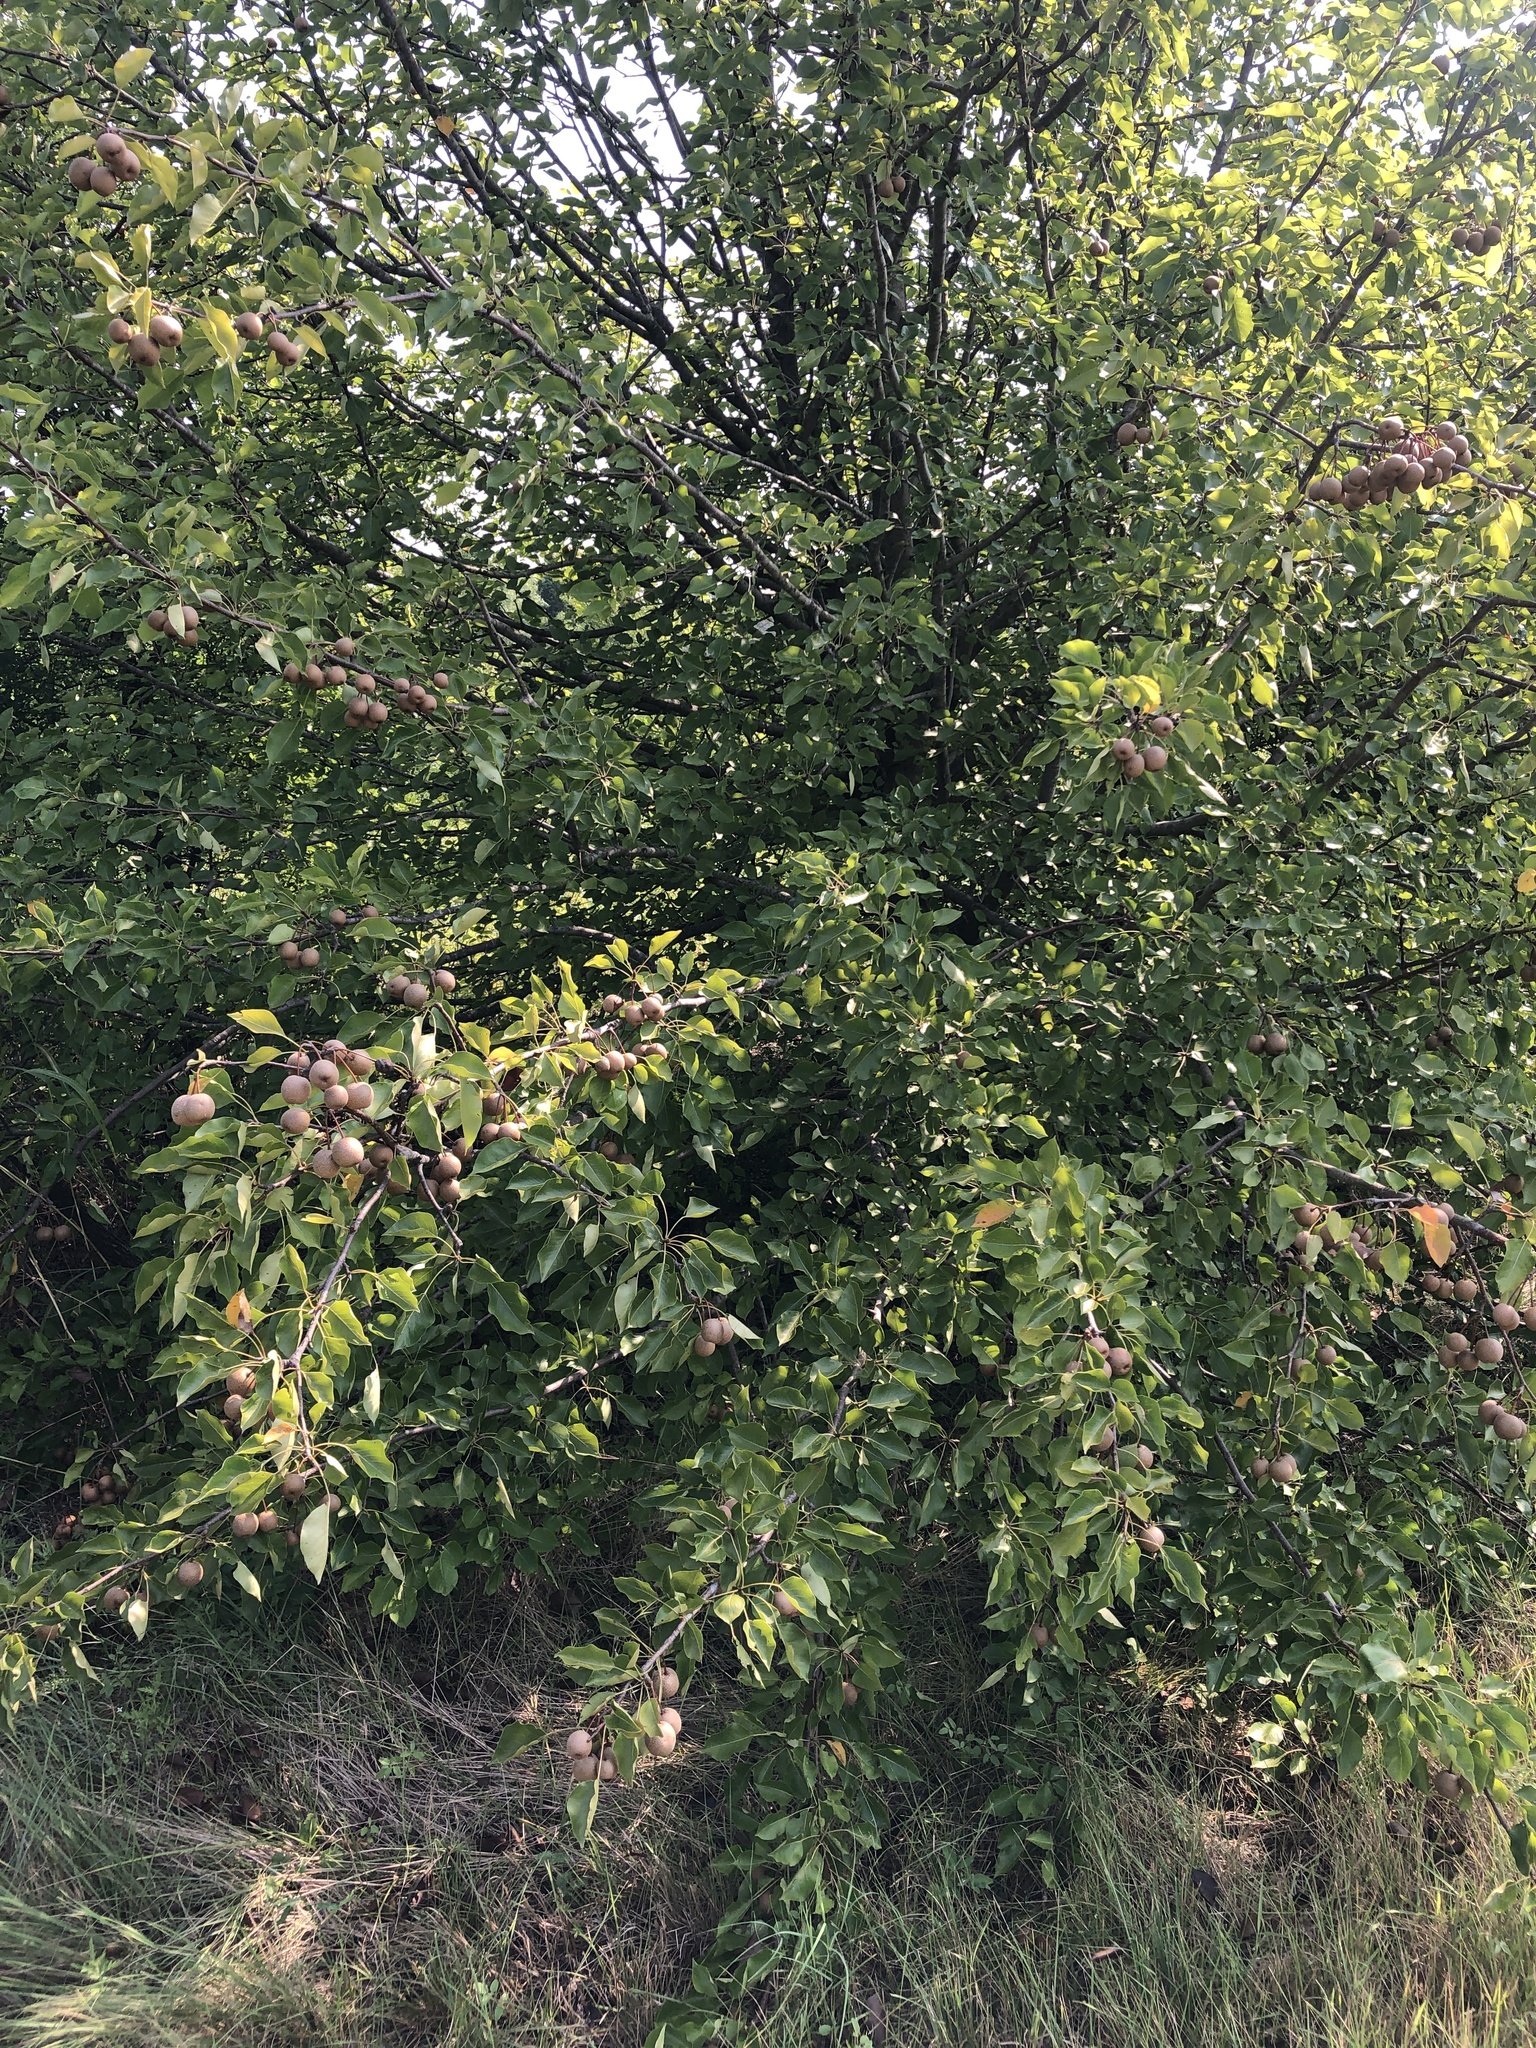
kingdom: Plantae
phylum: Tracheophyta
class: Magnoliopsida
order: Rosales
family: Rosaceae
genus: Pyrus
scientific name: Pyrus calleryana
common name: Callery pear
